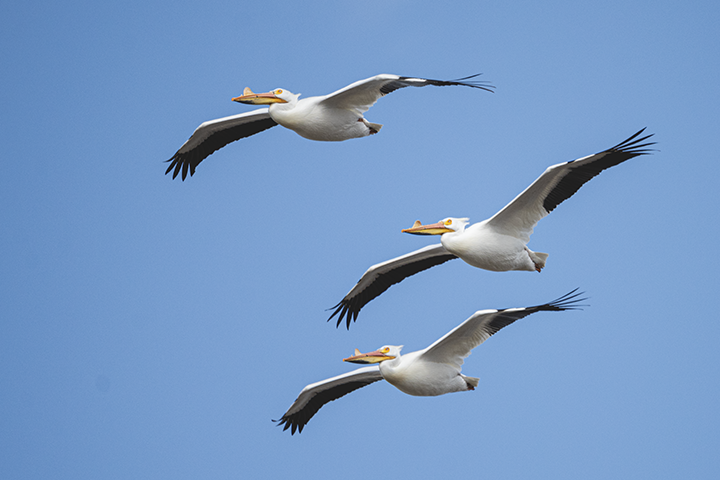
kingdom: Animalia
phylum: Chordata
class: Aves
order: Pelecaniformes
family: Pelecanidae
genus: Pelecanus
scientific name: Pelecanus erythrorhynchos
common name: American white pelican
